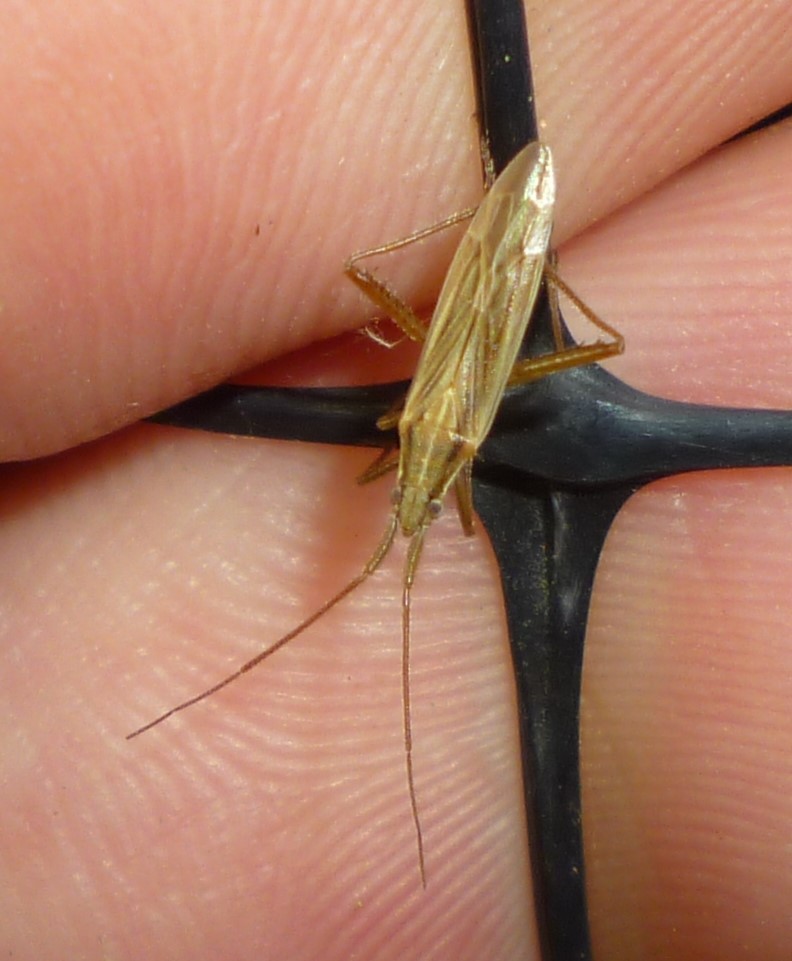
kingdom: Animalia
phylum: Arthropoda
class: Insecta
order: Hemiptera
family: Miridae
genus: Stenodema
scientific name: Stenodema trispinosa
